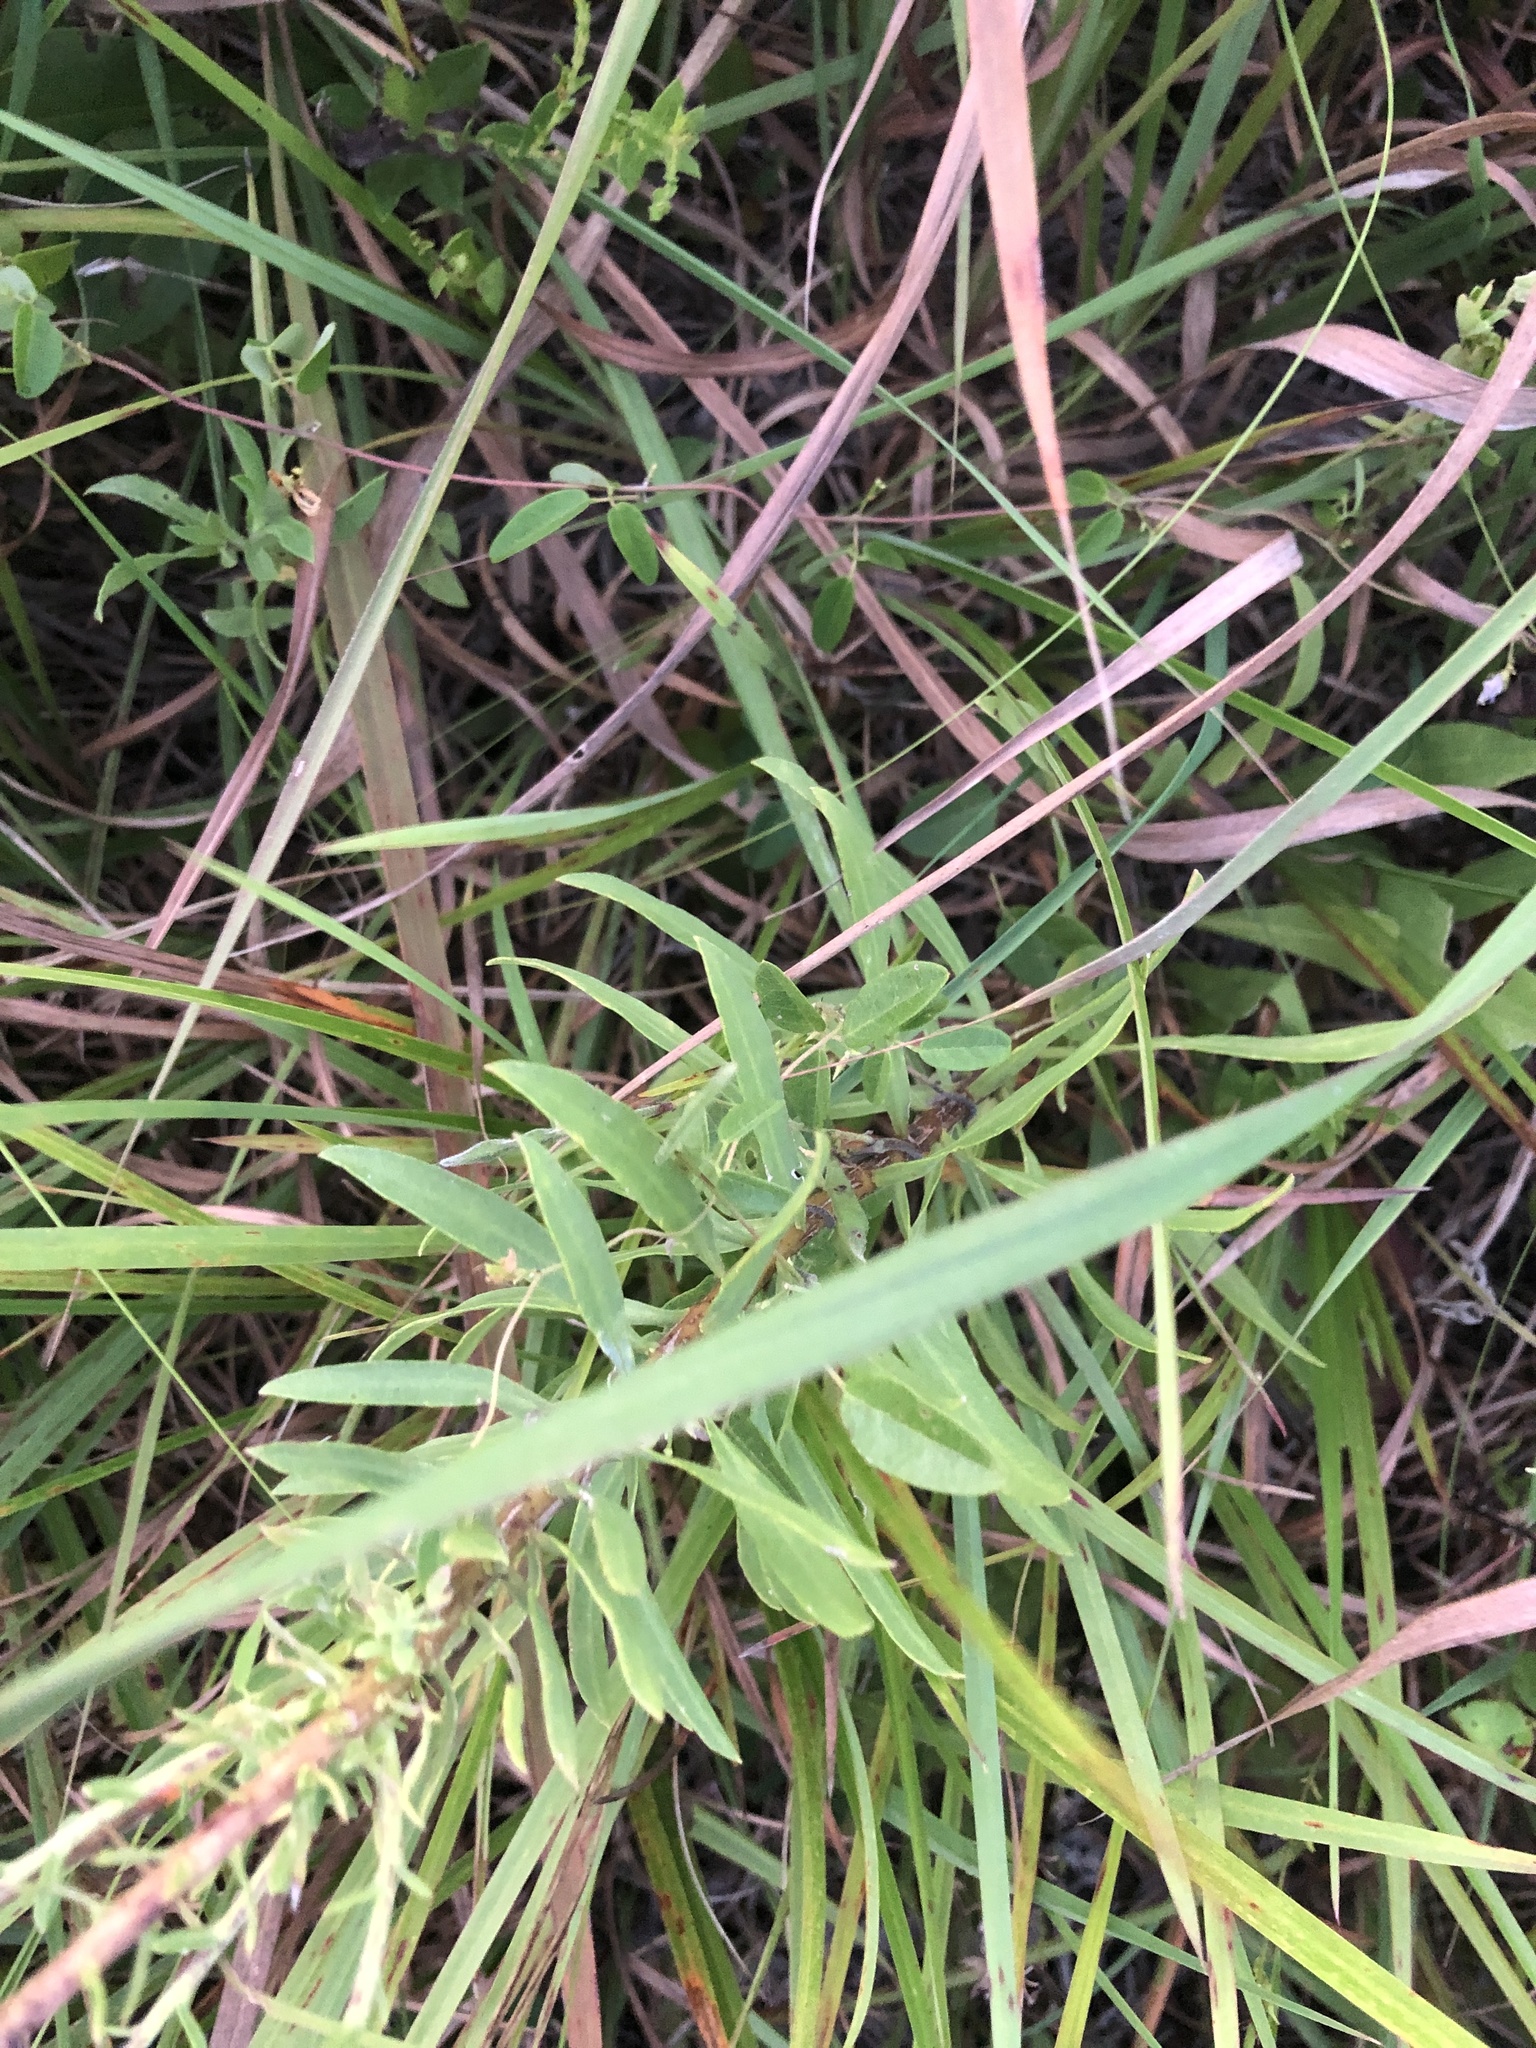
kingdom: Plantae
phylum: Tracheophyta
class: Magnoliopsida
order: Asterales
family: Asteraceae
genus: Liatris
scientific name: Liatris aspera
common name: Lacerate blazing-star
